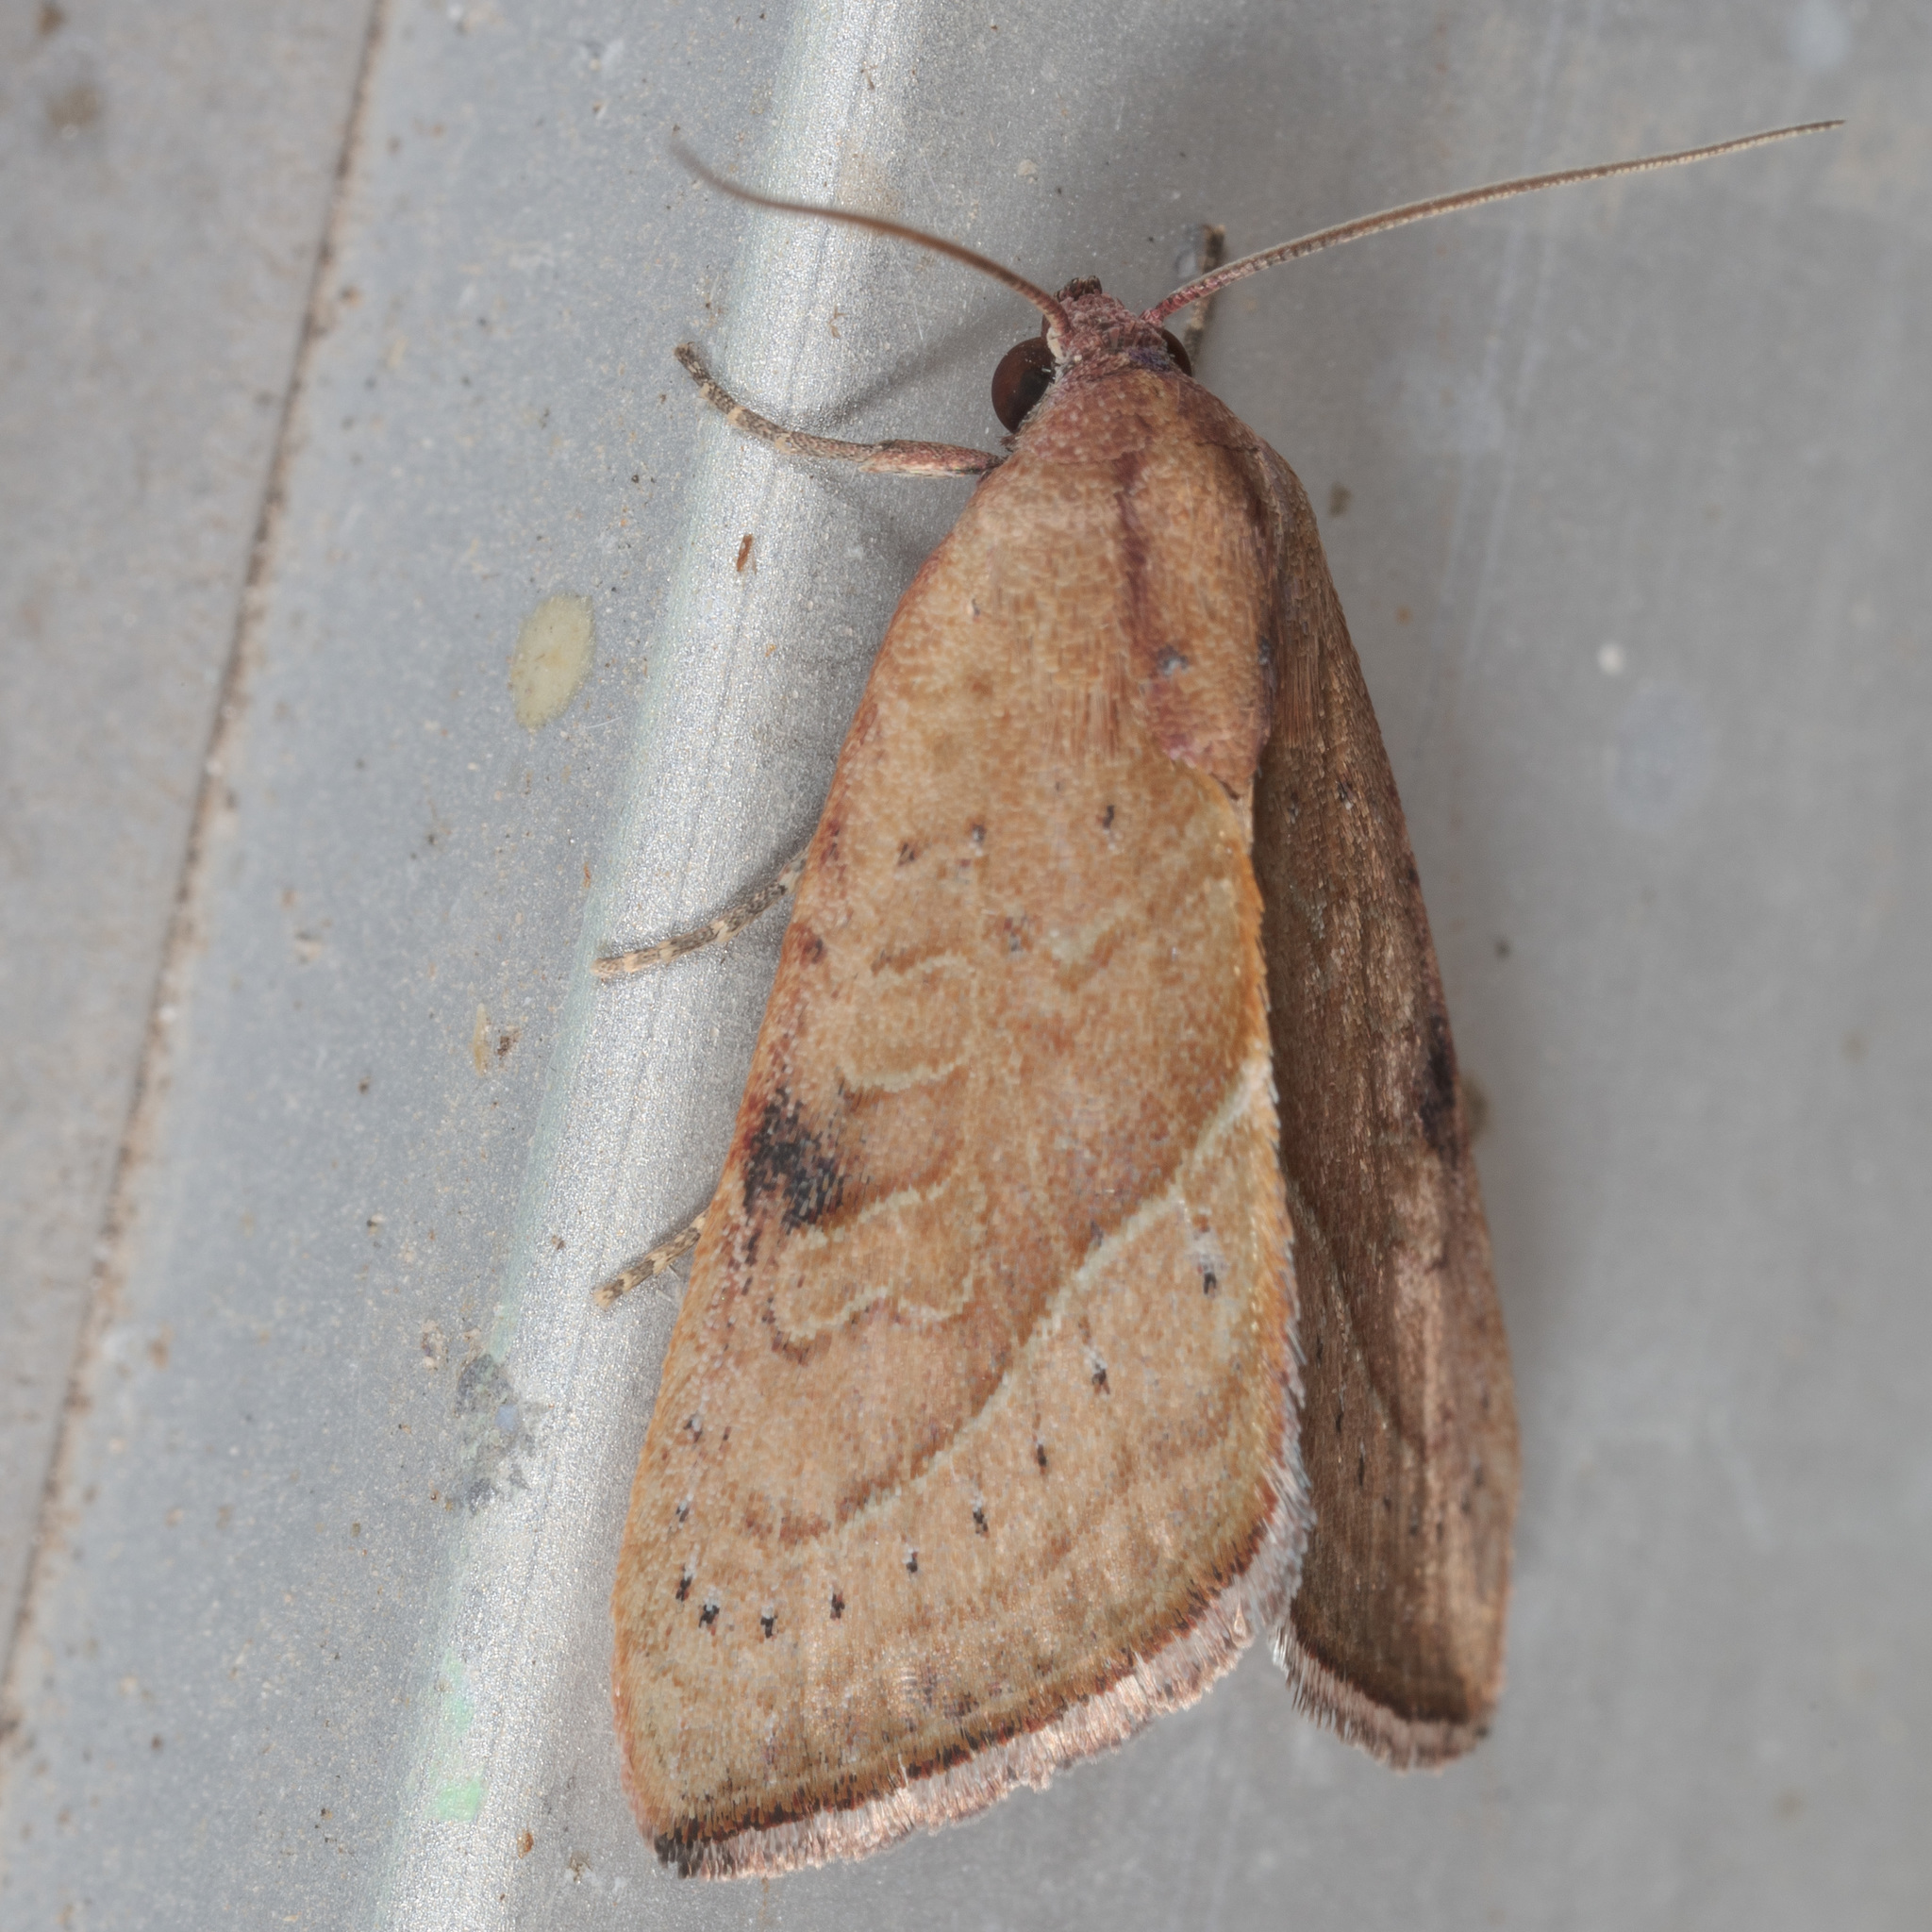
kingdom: Animalia
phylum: Arthropoda
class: Insecta
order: Lepidoptera
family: Noctuidae
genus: Galgula
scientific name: Galgula partita
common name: Wedgeling
